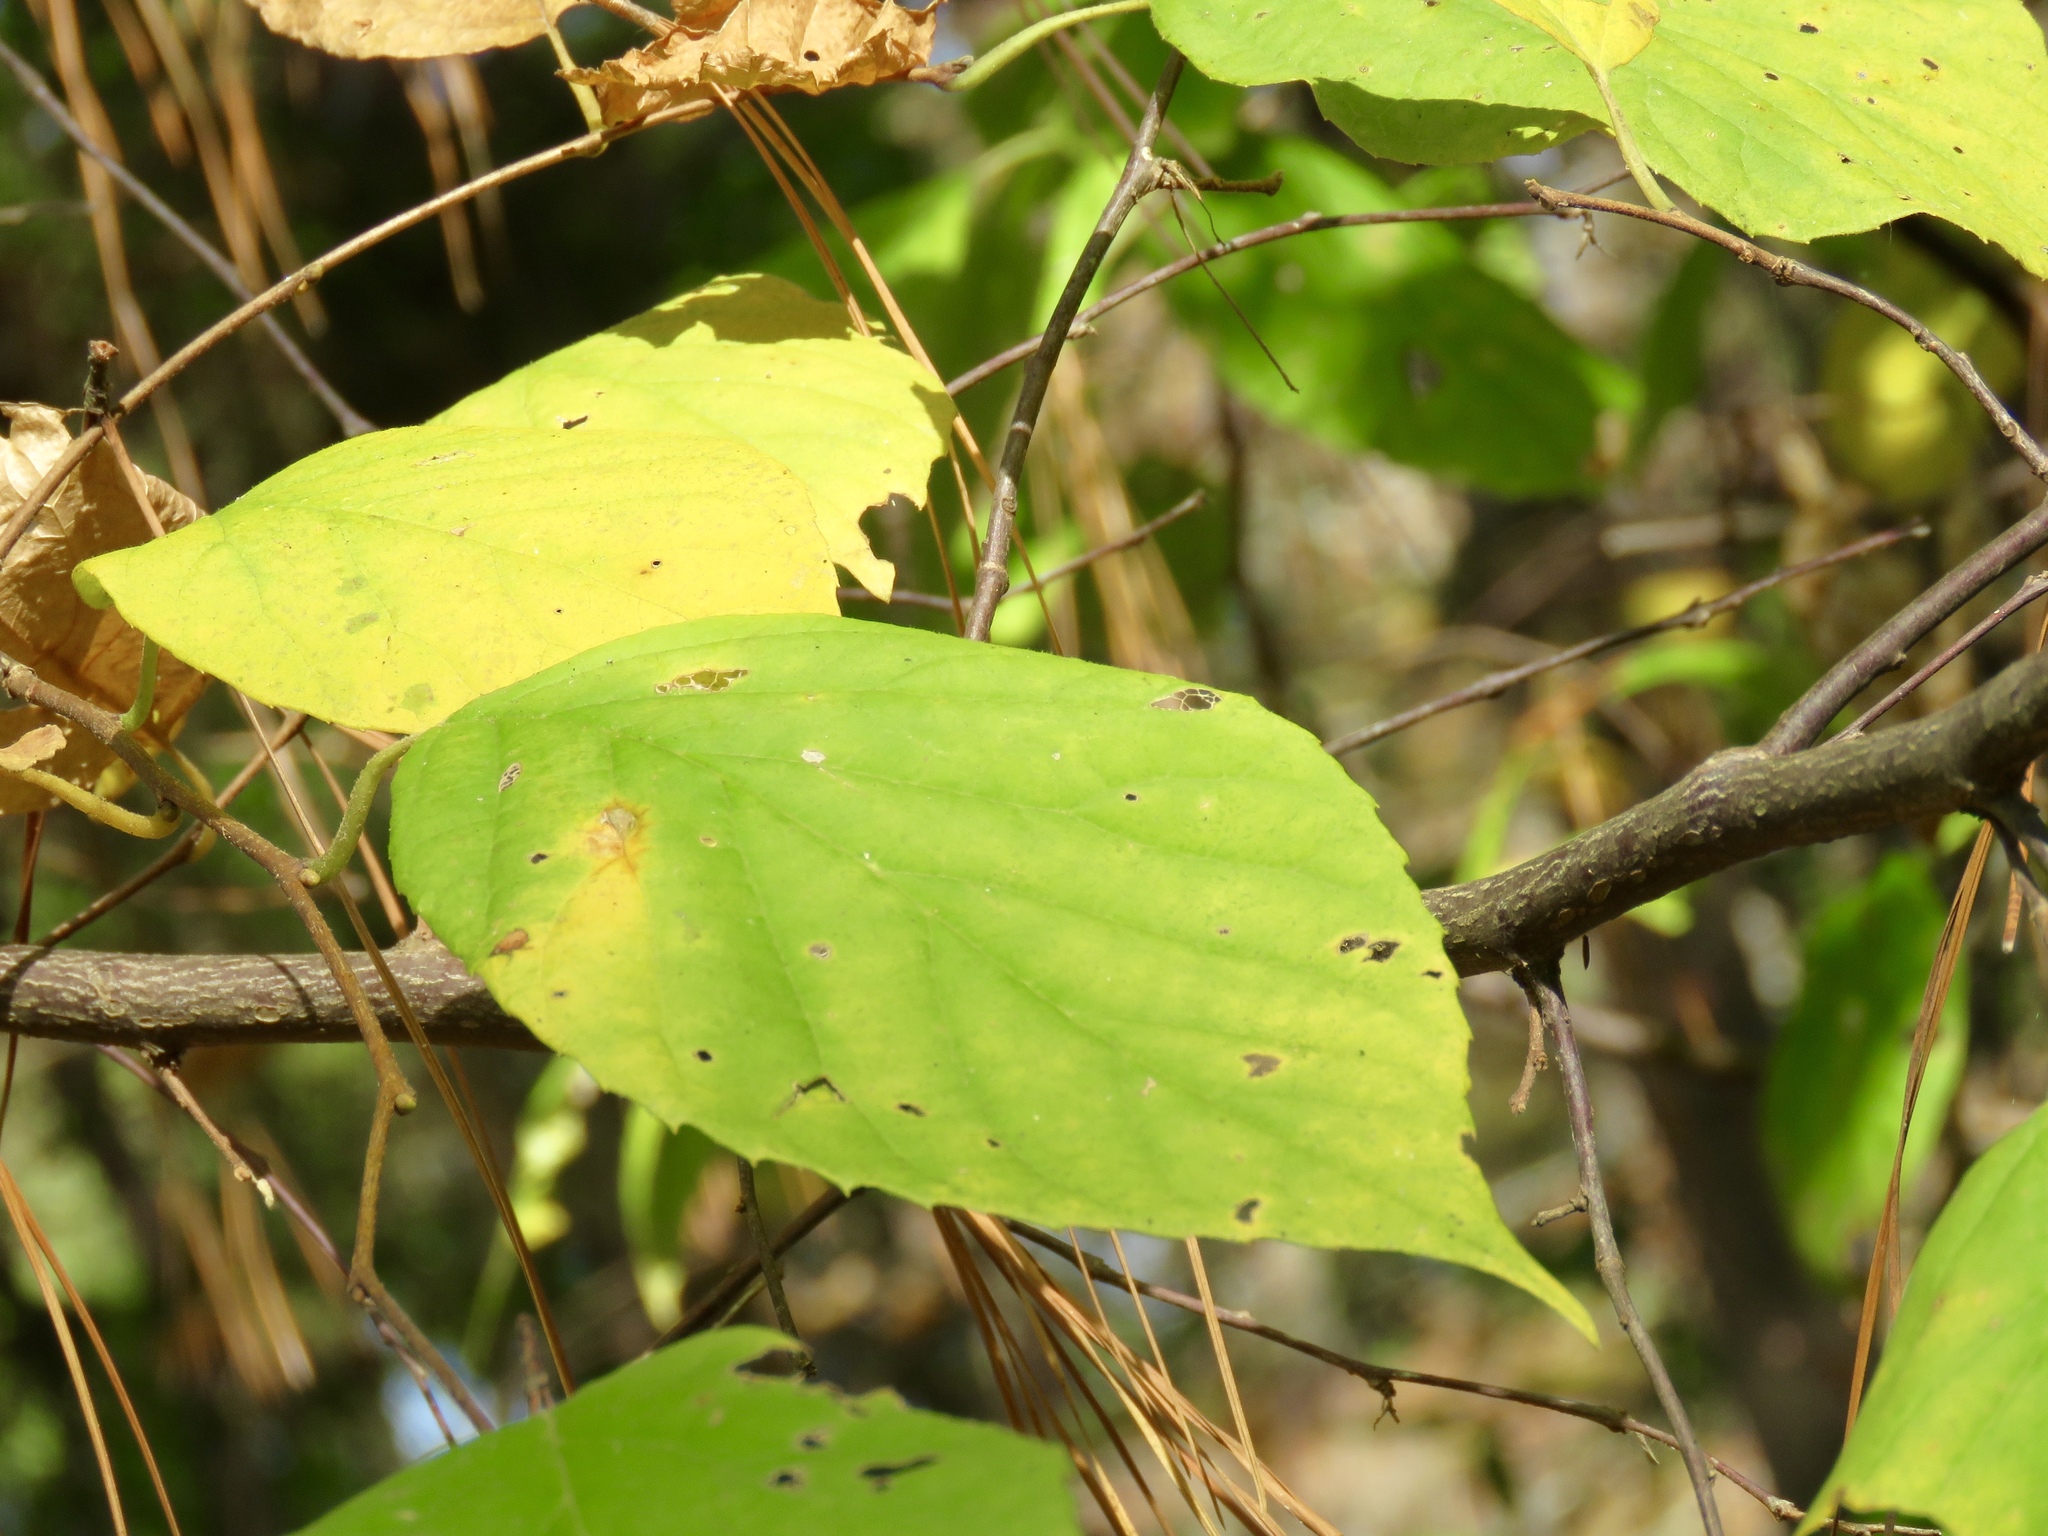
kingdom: Plantae
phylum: Tracheophyta
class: Magnoliopsida
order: Ericales
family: Styracaceae
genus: Halesia
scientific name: Halesia diptera
